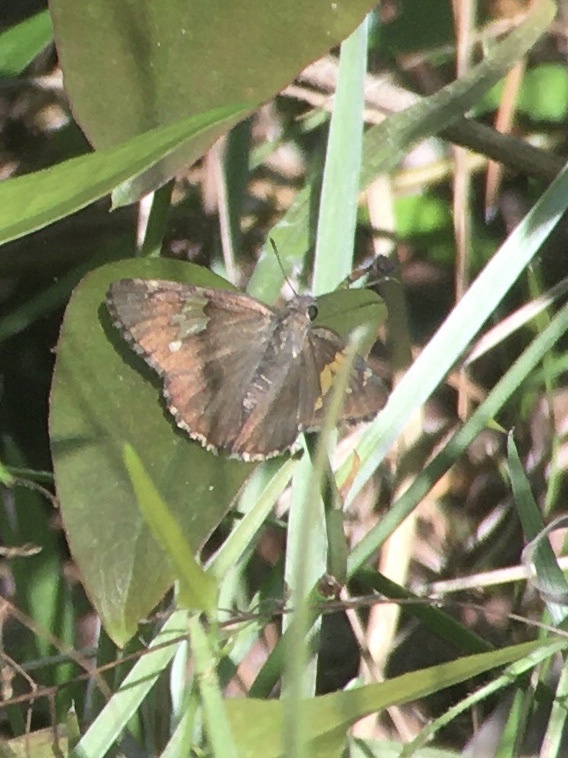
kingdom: Animalia
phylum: Arthropoda
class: Insecta
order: Lepidoptera
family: Hesperiidae
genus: Thorybes
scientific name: Thorybes lyciades
